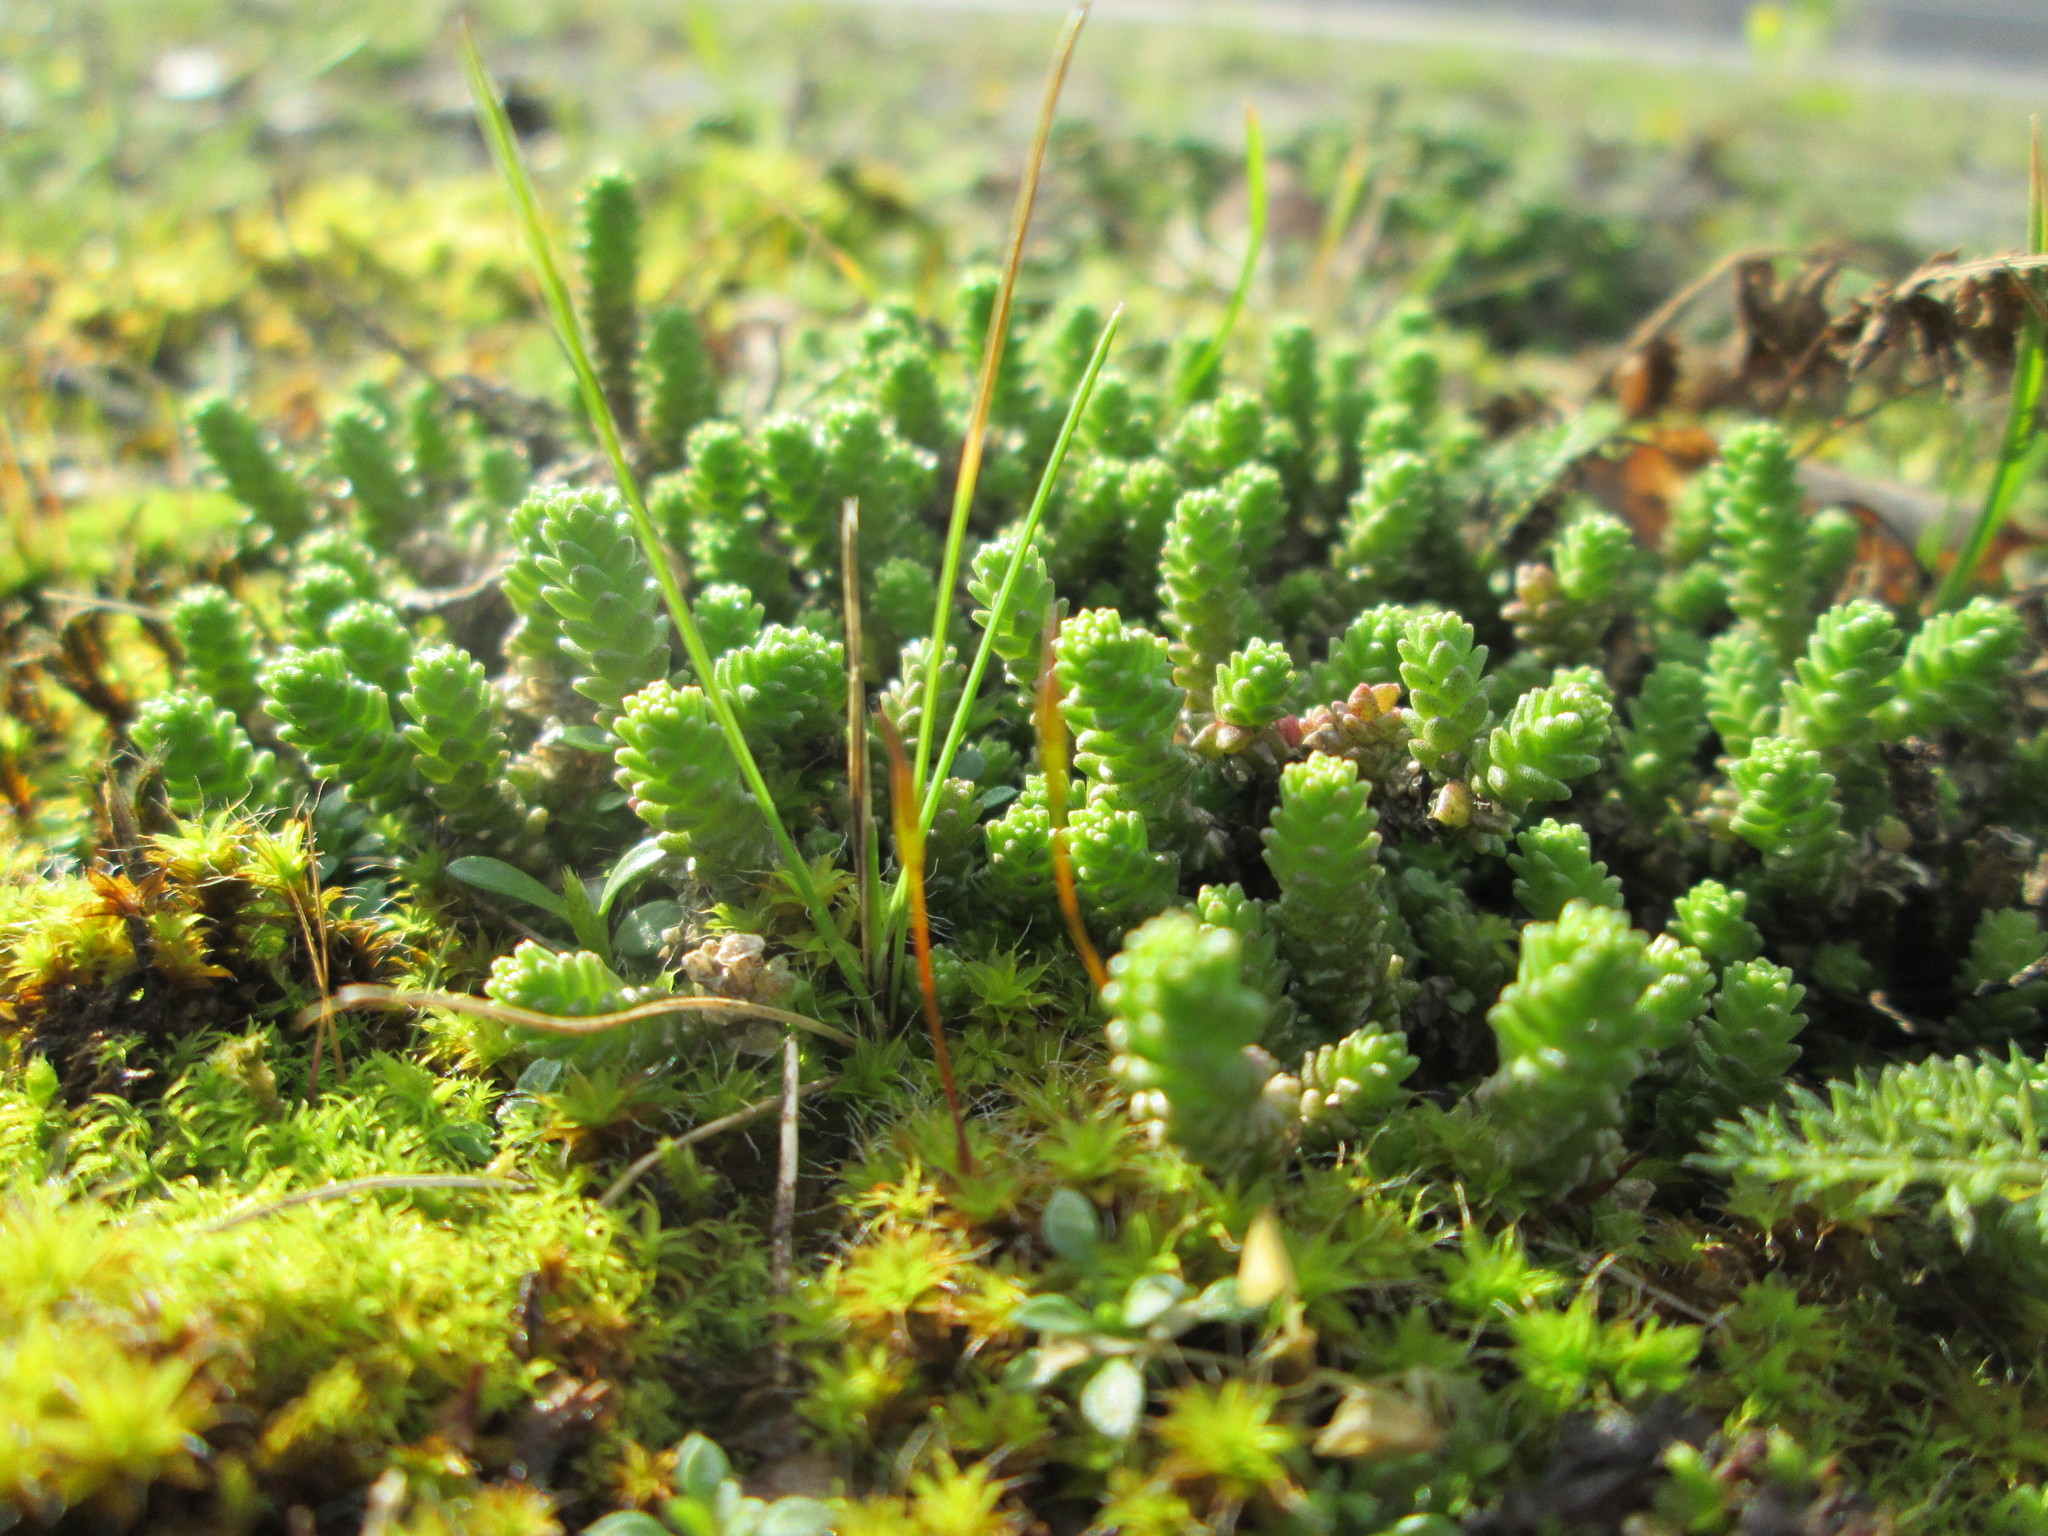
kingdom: Plantae
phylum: Tracheophyta
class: Magnoliopsida
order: Saxifragales
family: Crassulaceae
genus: Sedum
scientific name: Sedum acre
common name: Biting stonecrop
